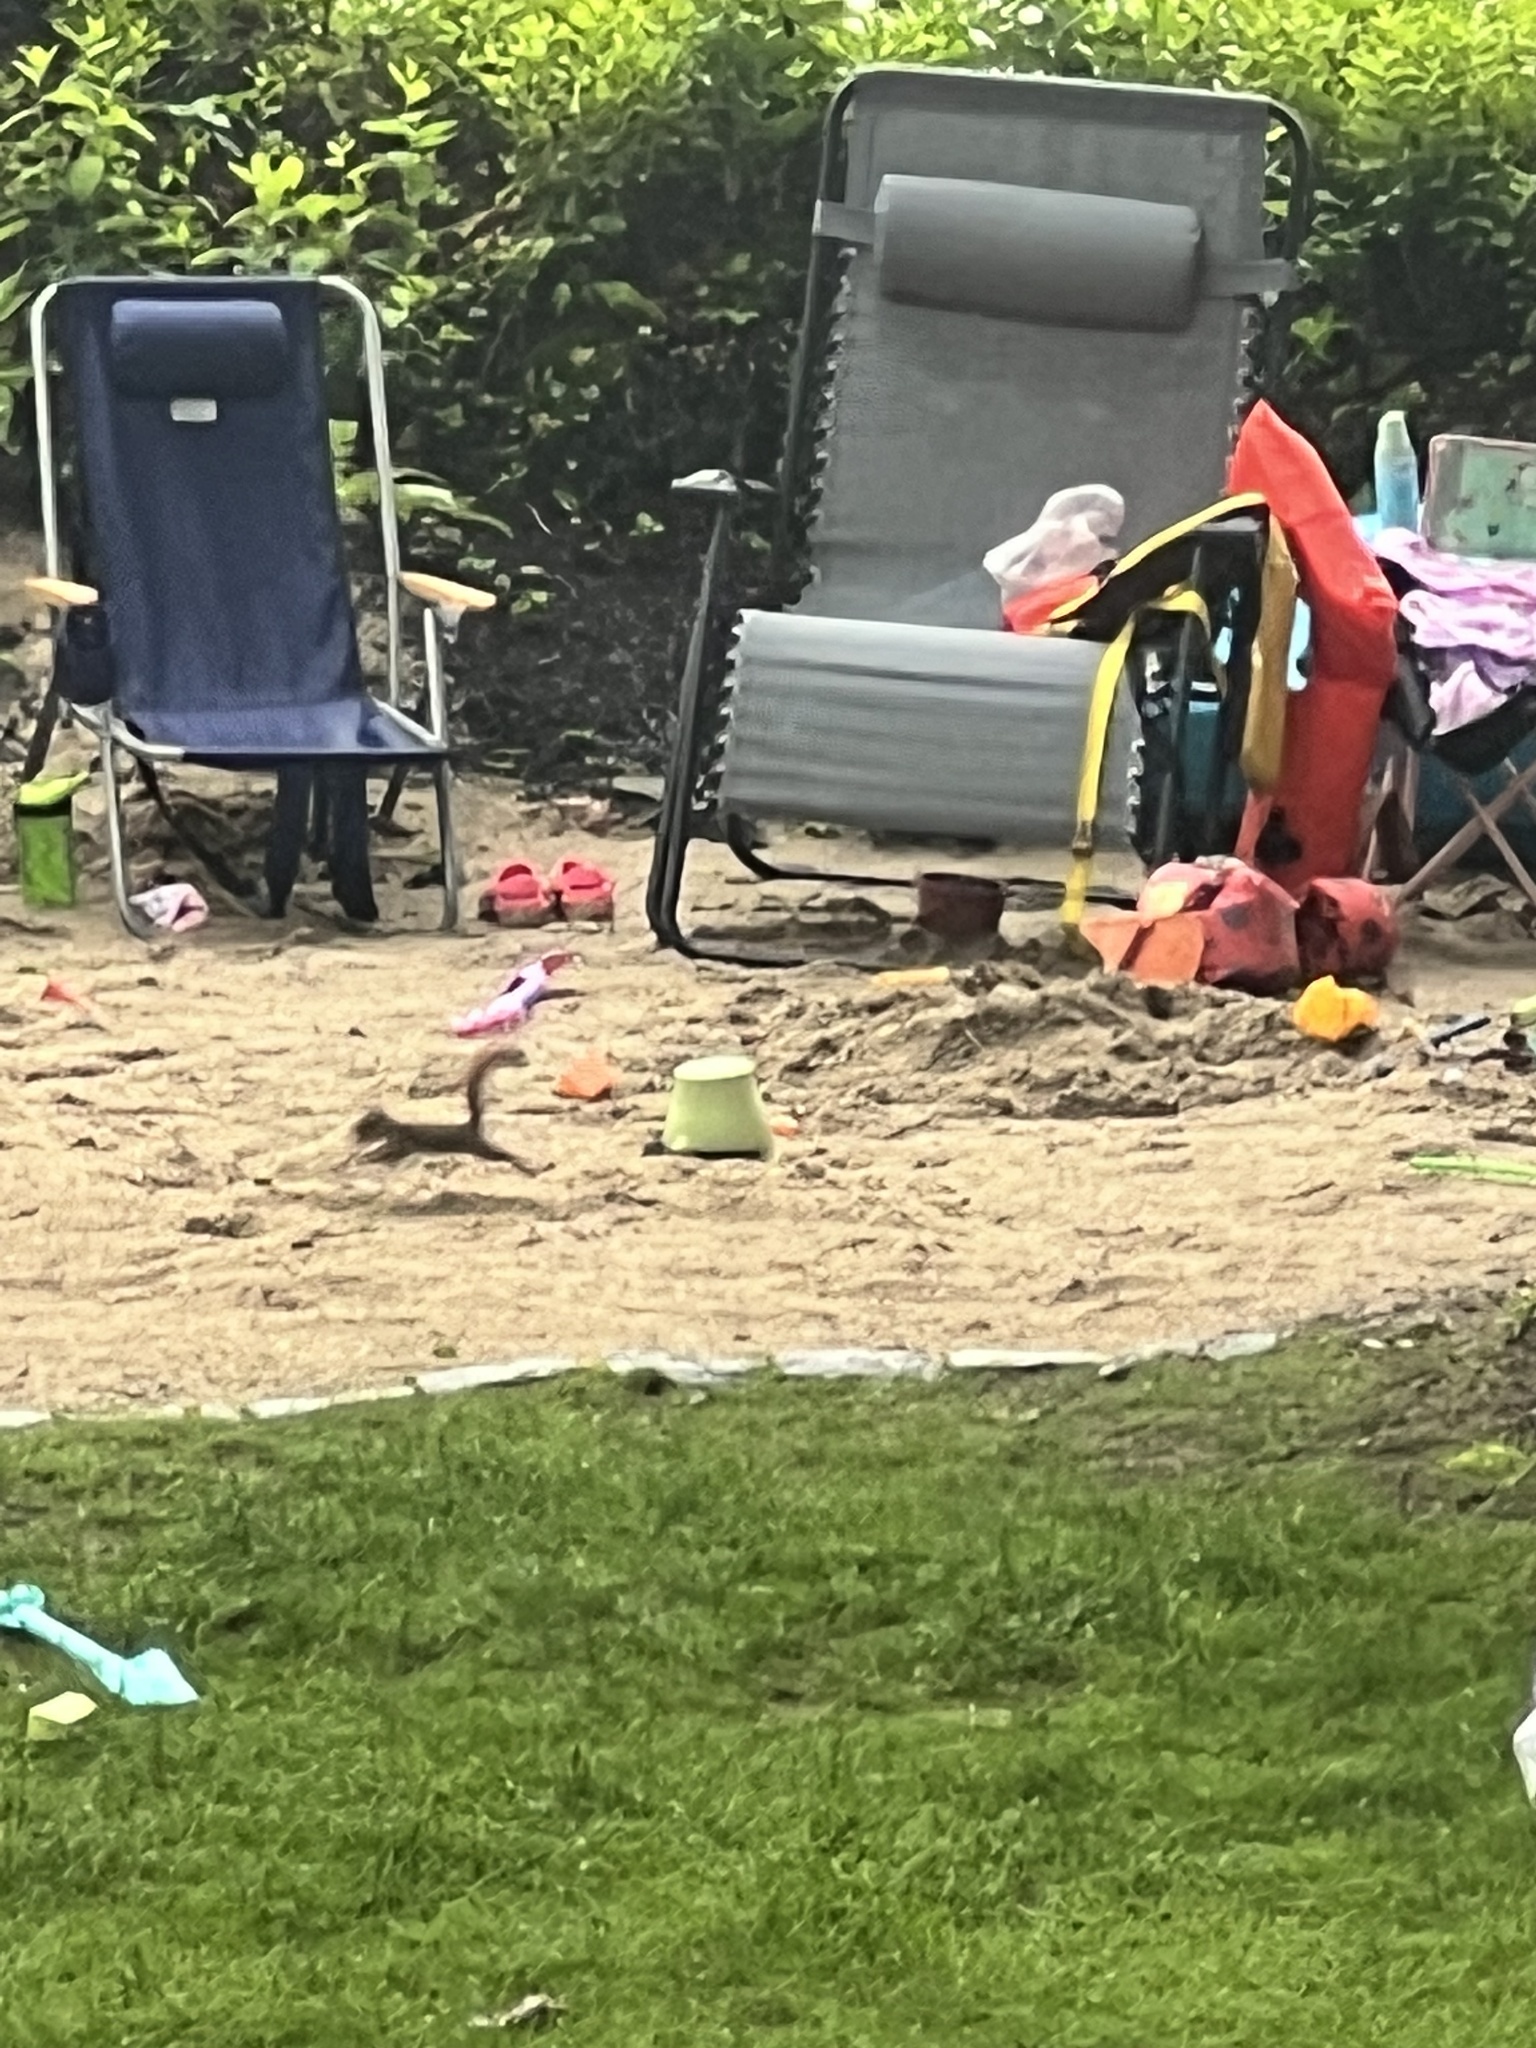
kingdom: Animalia
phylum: Chordata
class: Mammalia
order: Rodentia
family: Sciuridae
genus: Tamiasciurus
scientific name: Tamiasciurus hudsonicus
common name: Red squirrel
